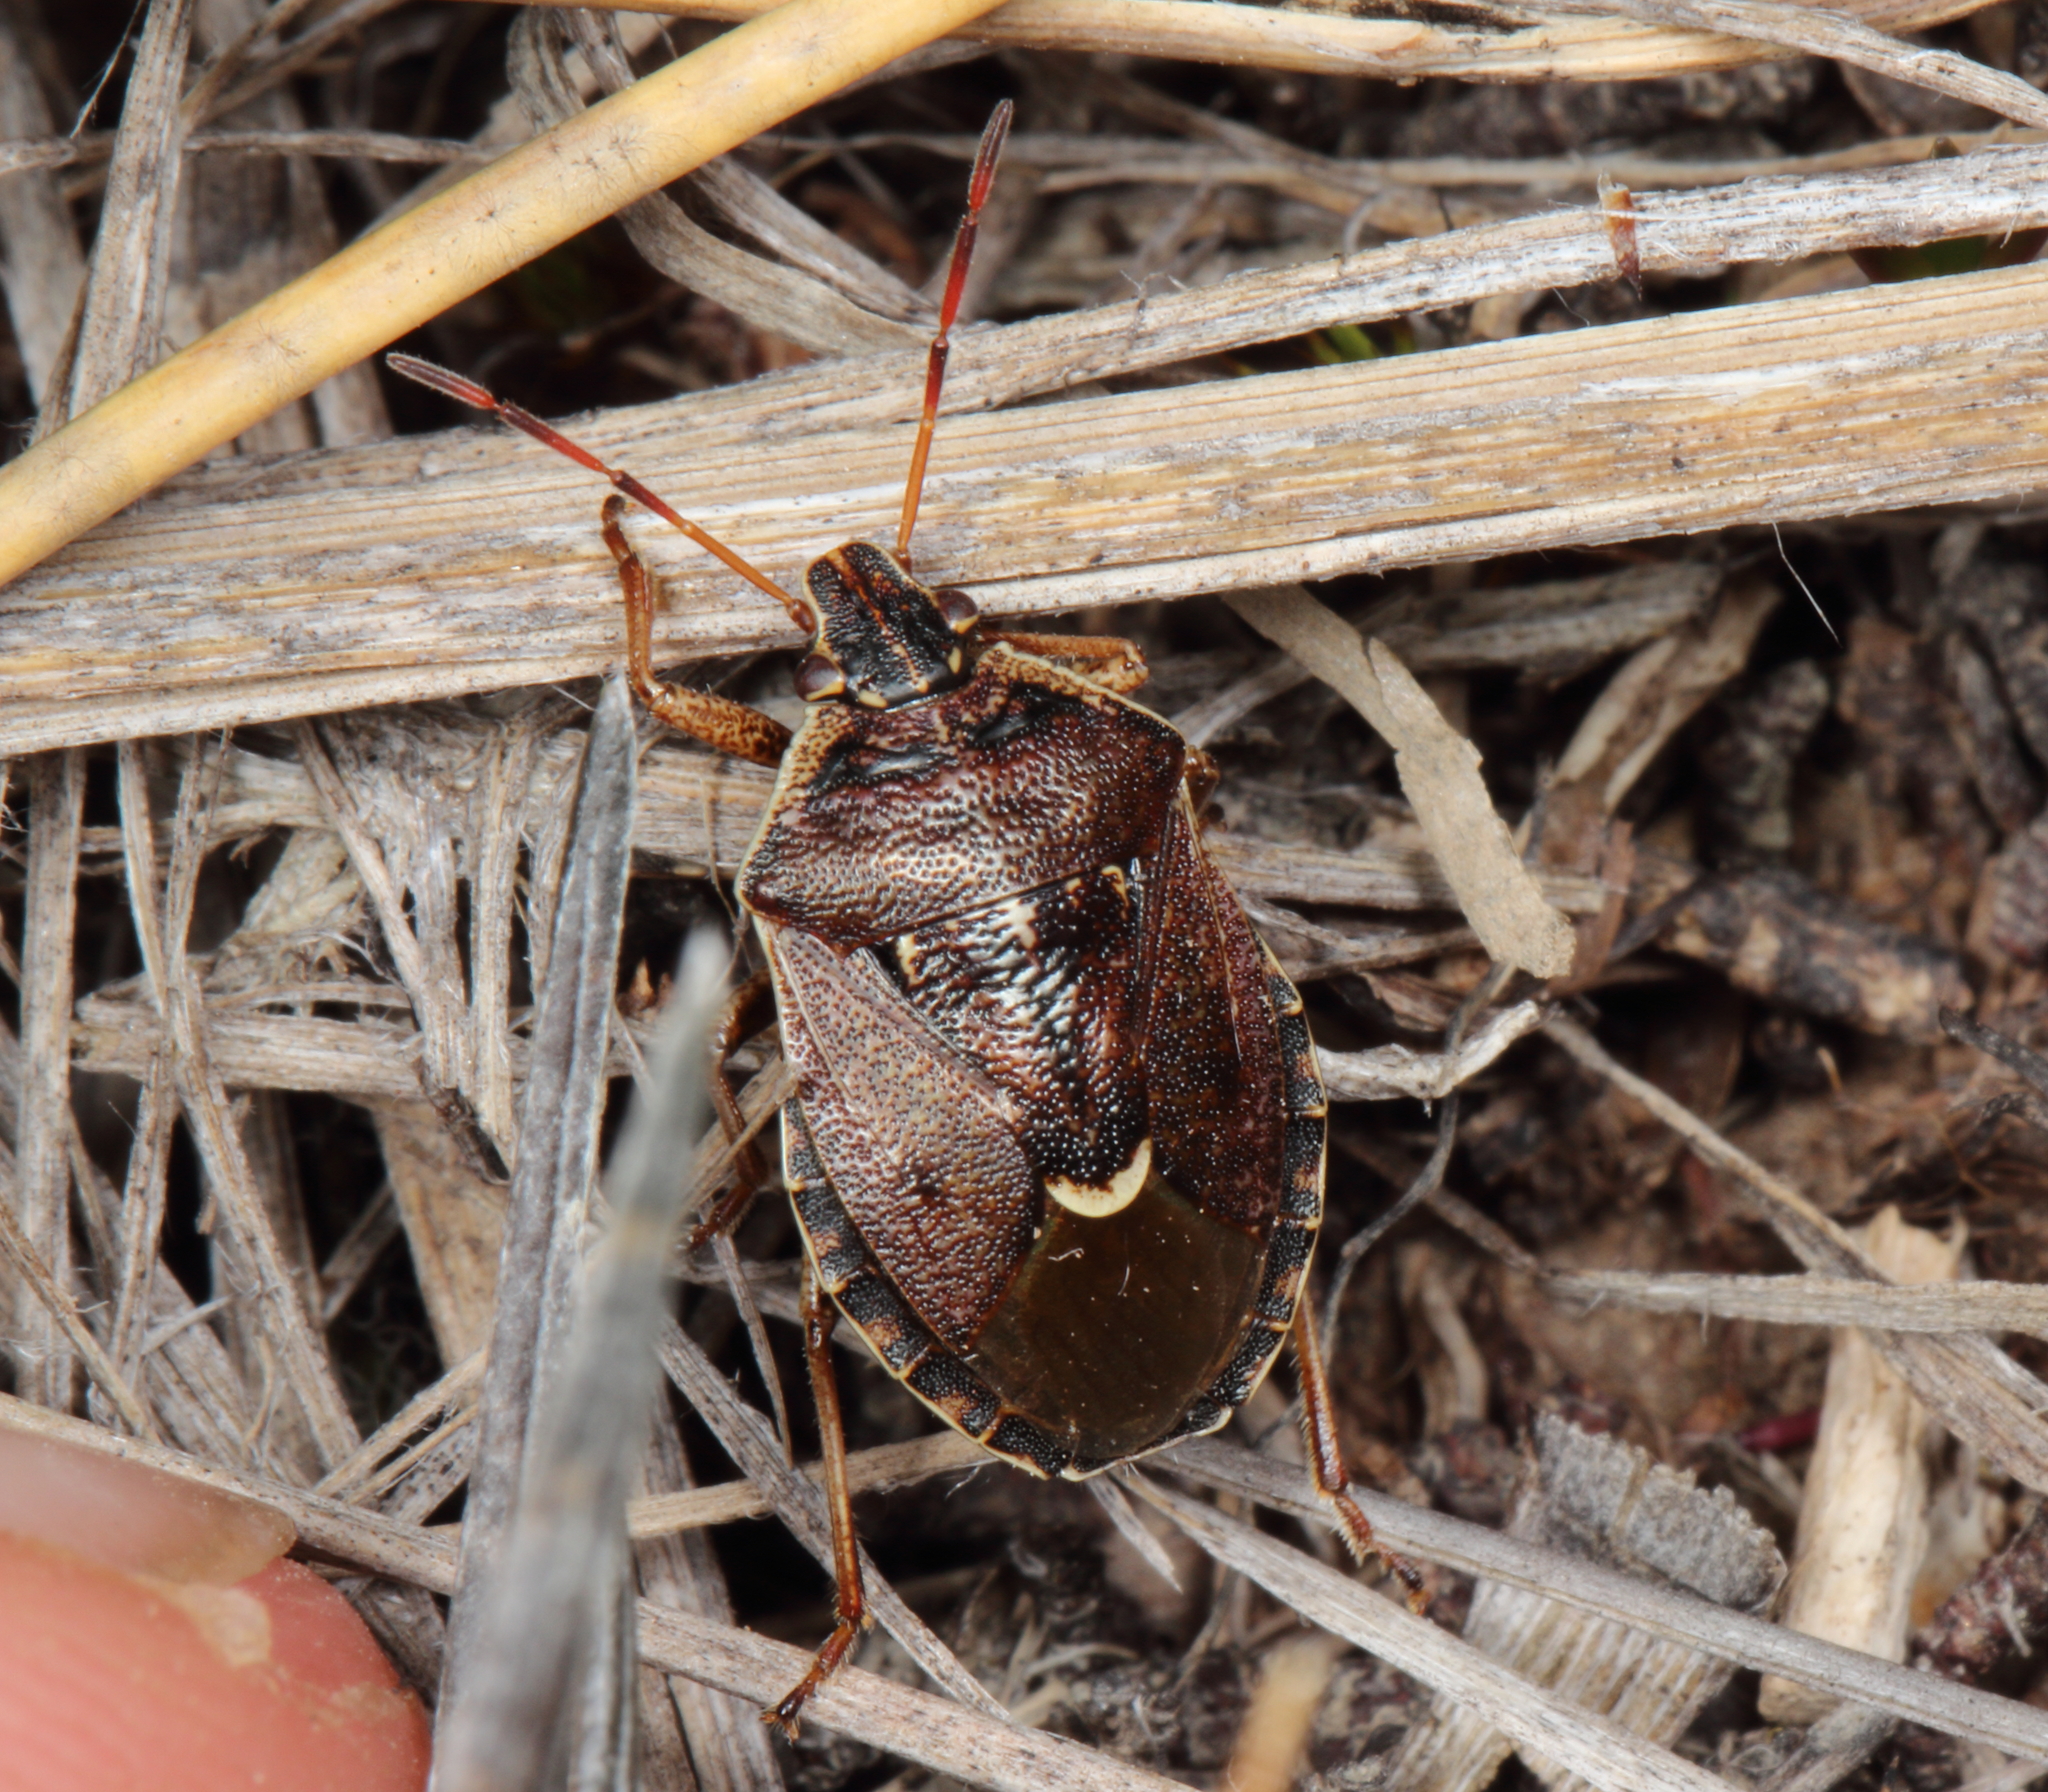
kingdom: Animalia
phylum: Arthropoda
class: Insecta
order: Hemiptera
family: Pentatomidae
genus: Cermatulus
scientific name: Cermatulus nasalis
